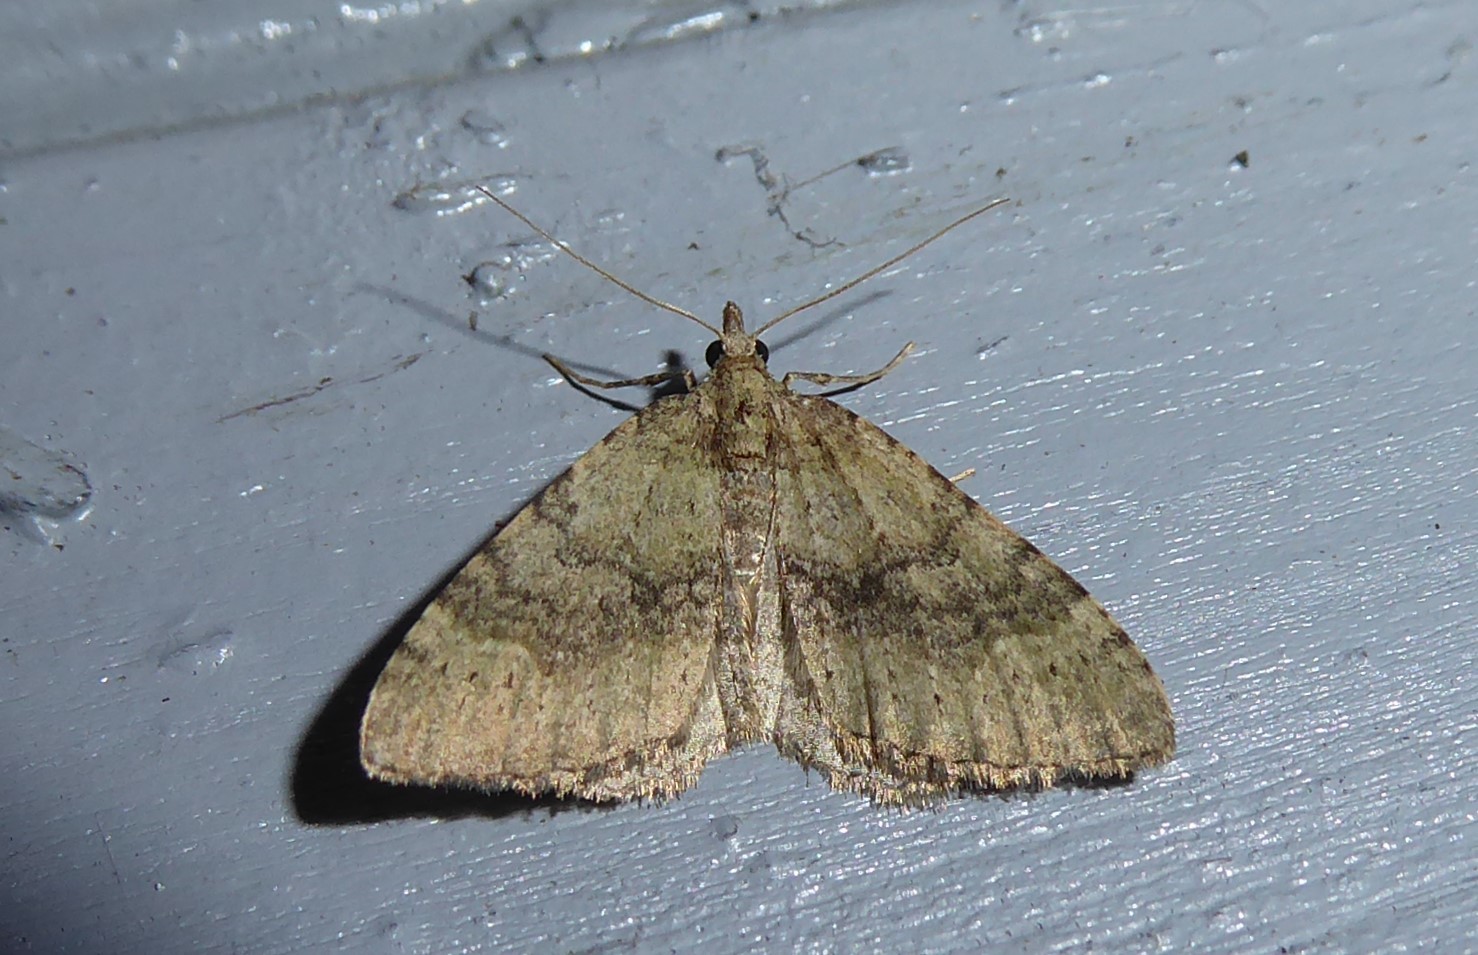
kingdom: Animalia
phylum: Arthropoda
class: Insecta
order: Lepidoptera
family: Geometridae
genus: Asaphodes
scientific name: Asaphodes aegrota
